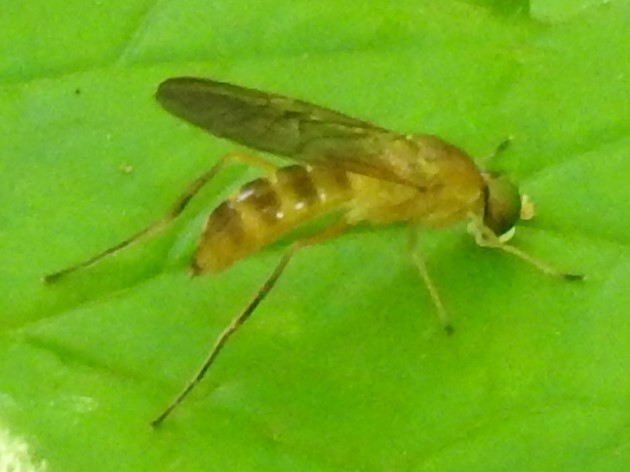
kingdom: Animalia
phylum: Arthropoda
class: Insecta
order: Diptera
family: Stratiomyidae
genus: Ptecticus
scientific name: Ptecticus trivittatus
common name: Compost fly
